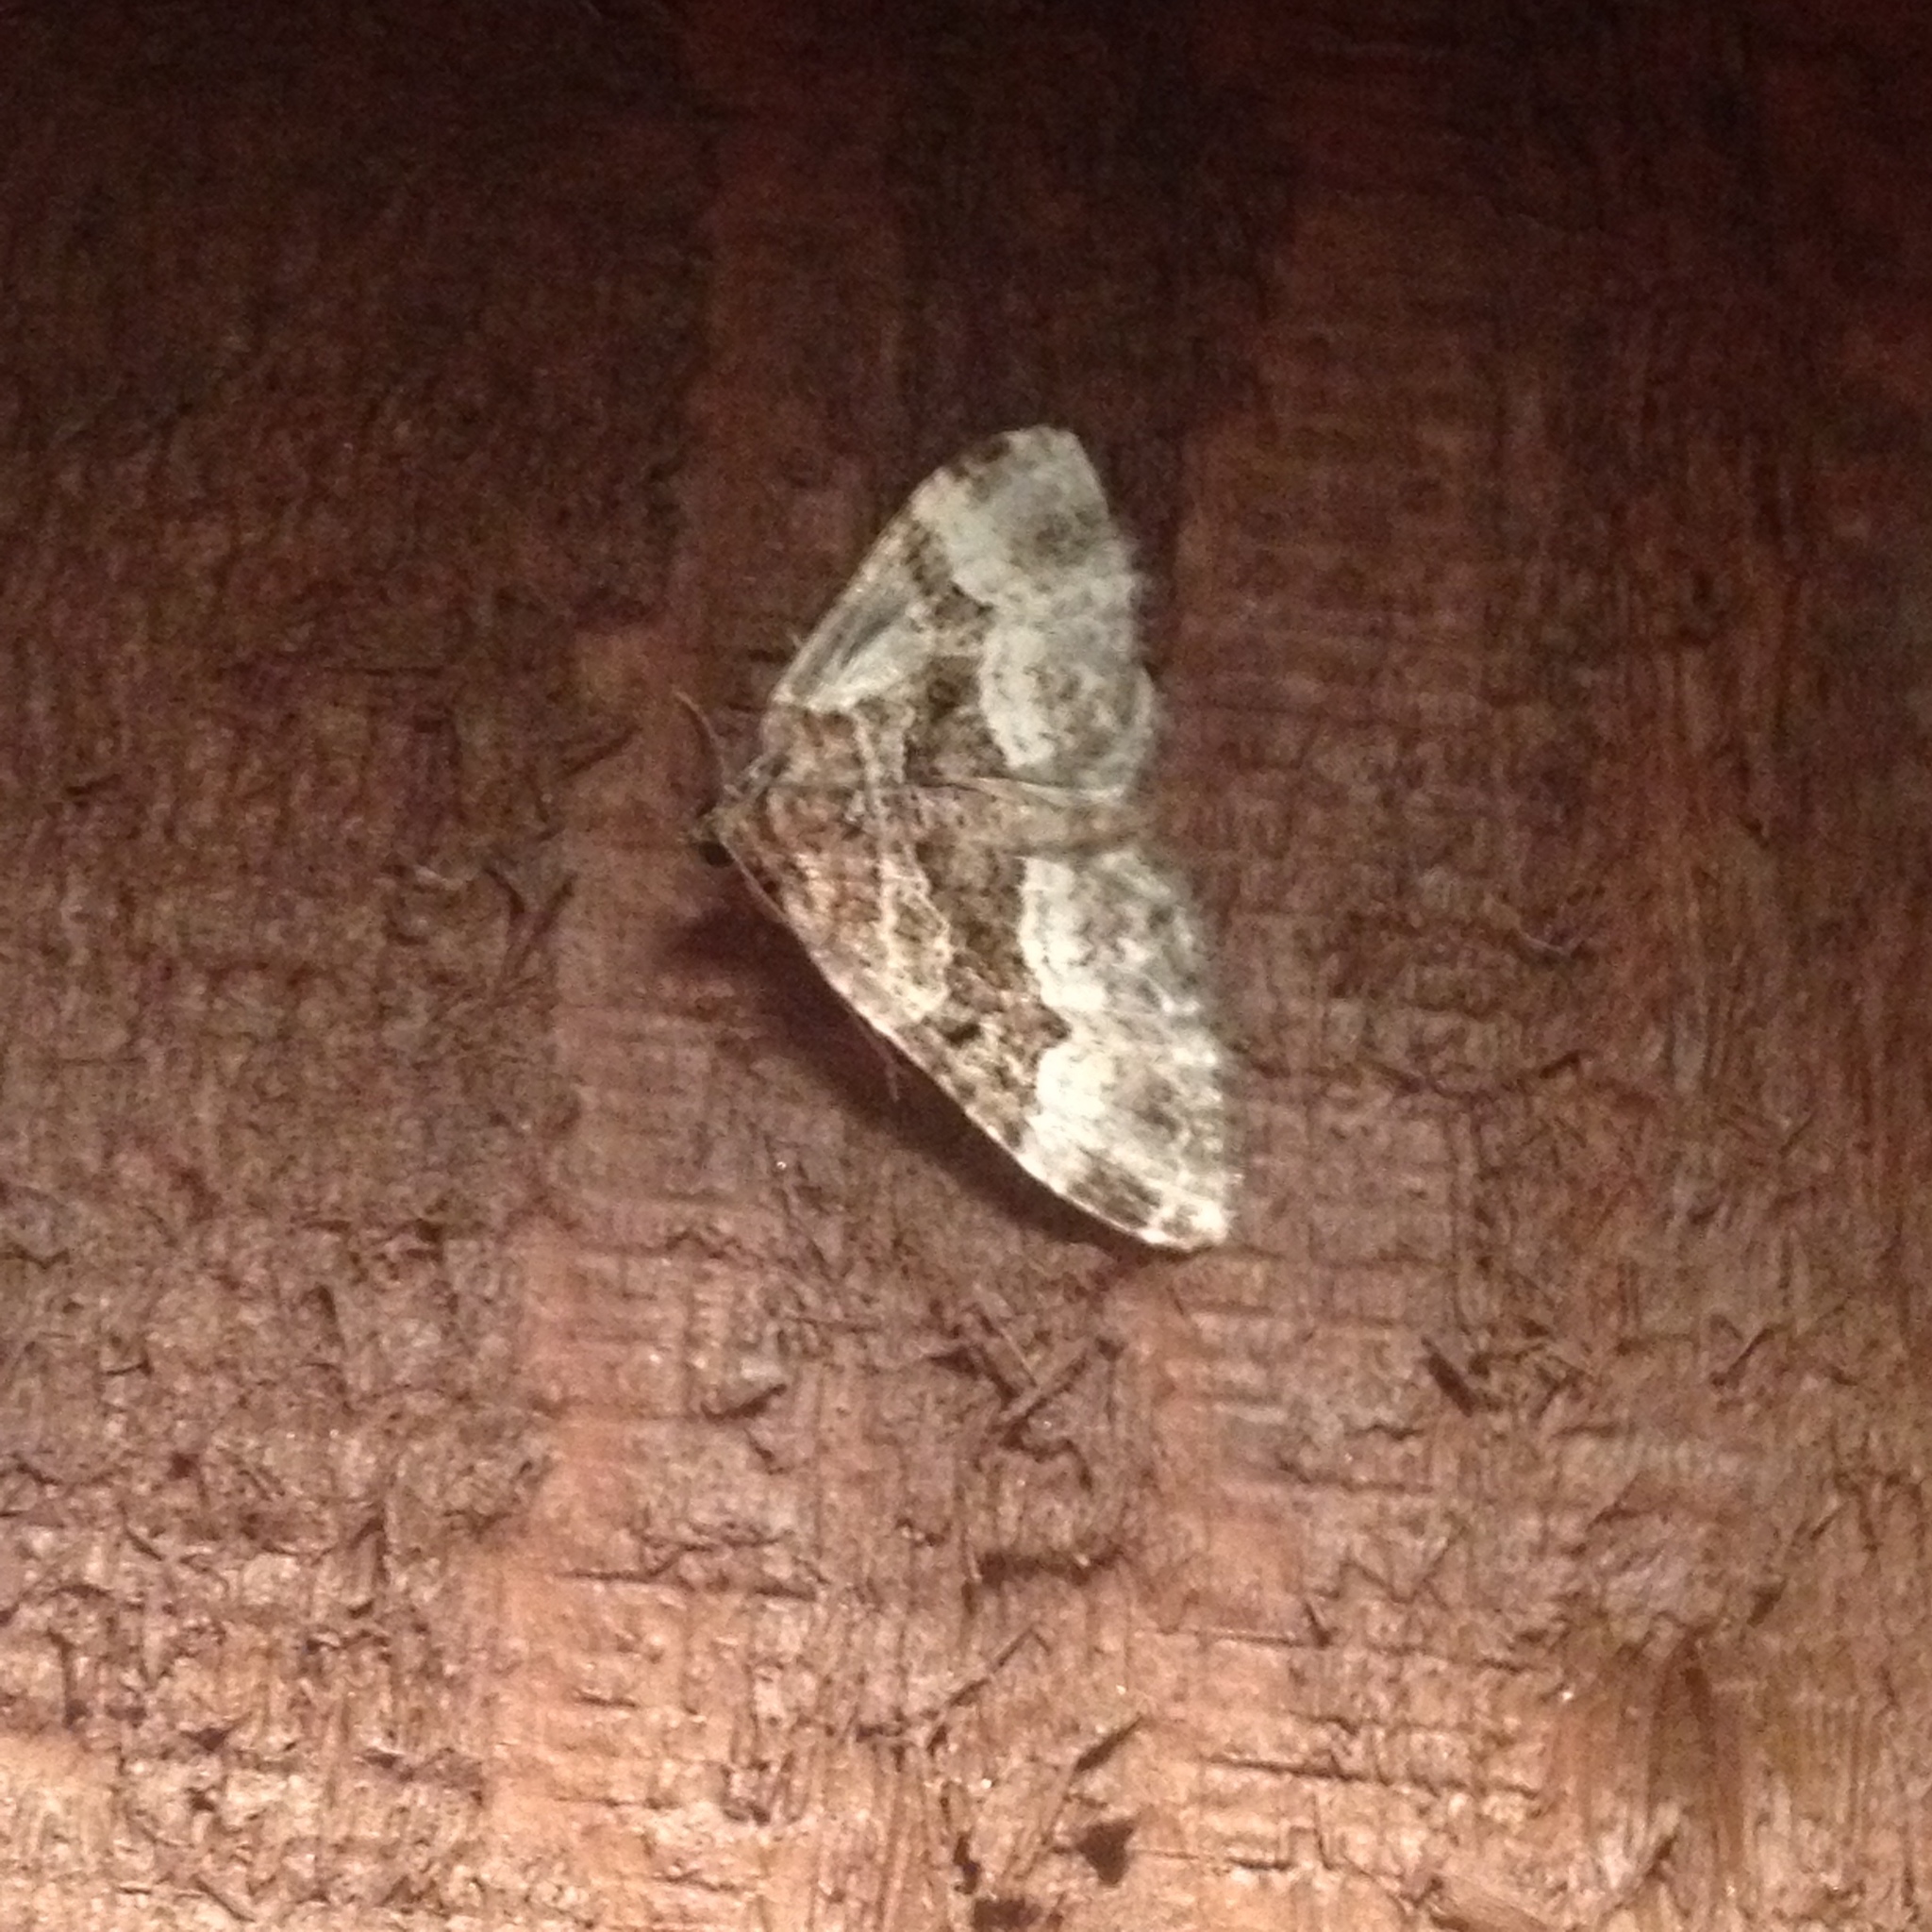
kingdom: Animalia
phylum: Arthropoda
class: Insecta
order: Lepidoptera
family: Geometridae
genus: Epirrhoe
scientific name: Epirrhoe alternata
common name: Common carpet
